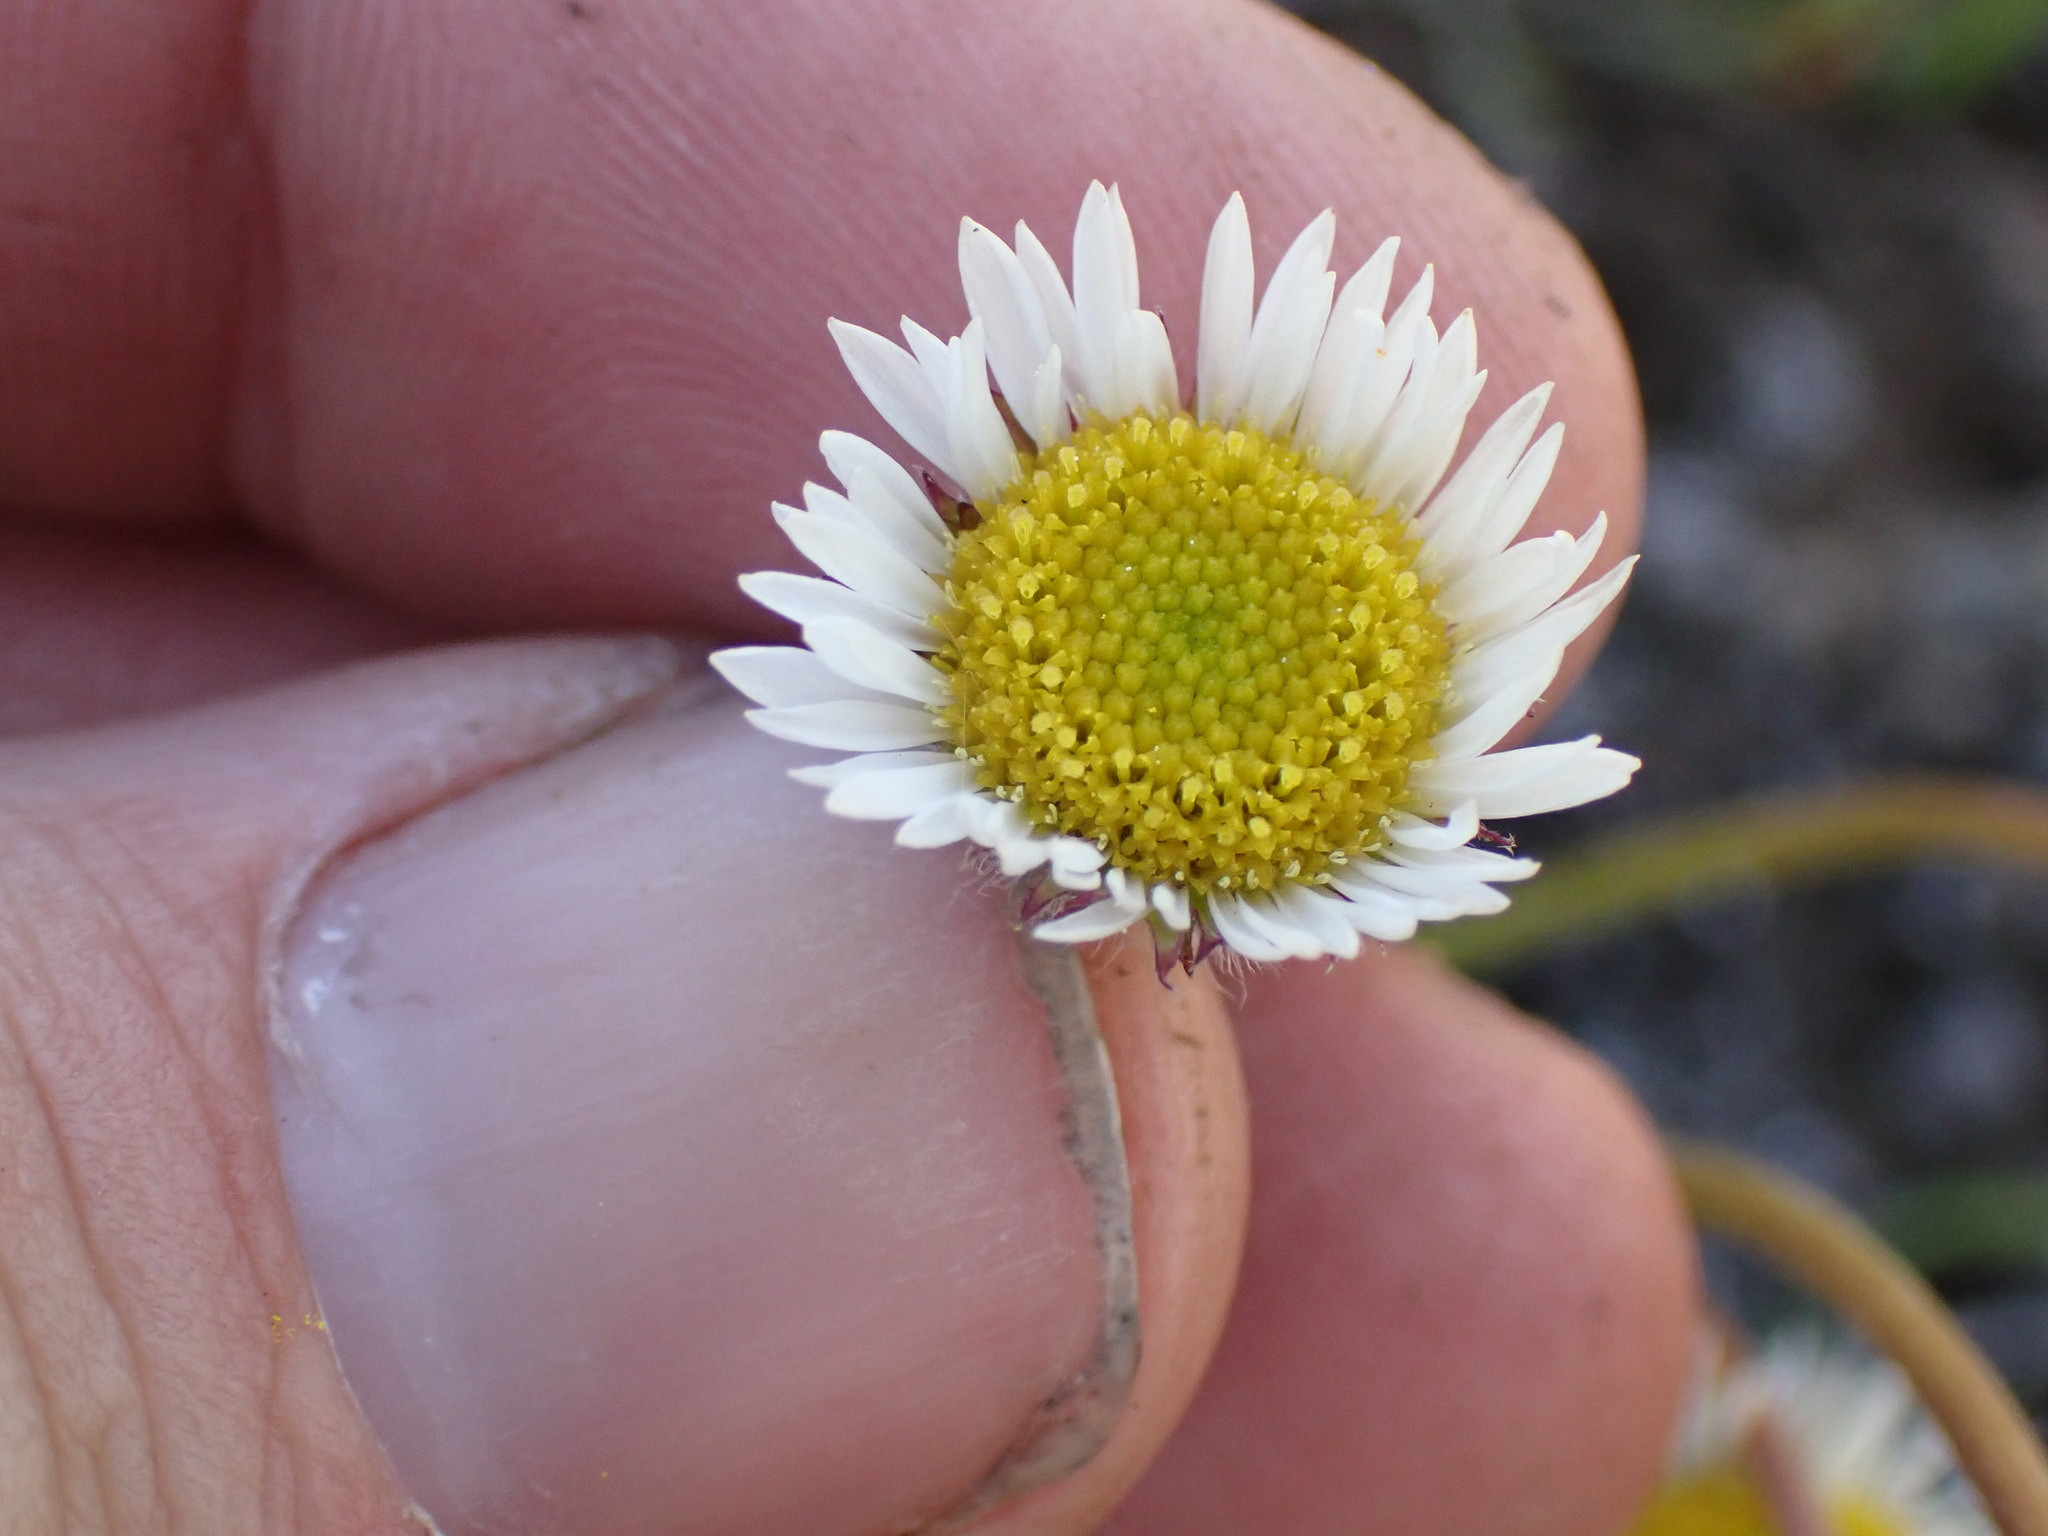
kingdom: Plantae
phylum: Tracheophyta
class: Magnoliopsida
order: Asterales
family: Asteraceae
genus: Erigeron
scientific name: Erigeron compositus
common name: Dwarf mountain fleabane
